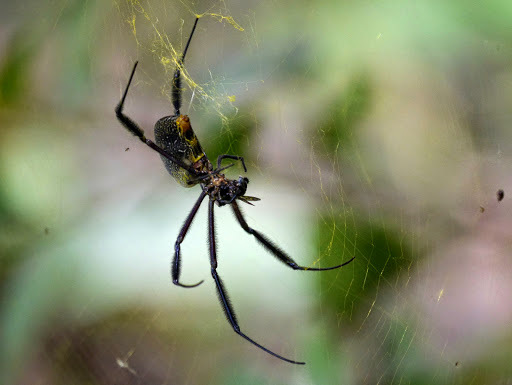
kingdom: Animalia
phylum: Arthropoda
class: Arachnida
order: Araneae
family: Araneidae
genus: Trichonephila
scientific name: Trichonephila fenestrata
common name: Hairy golden orb weaver
